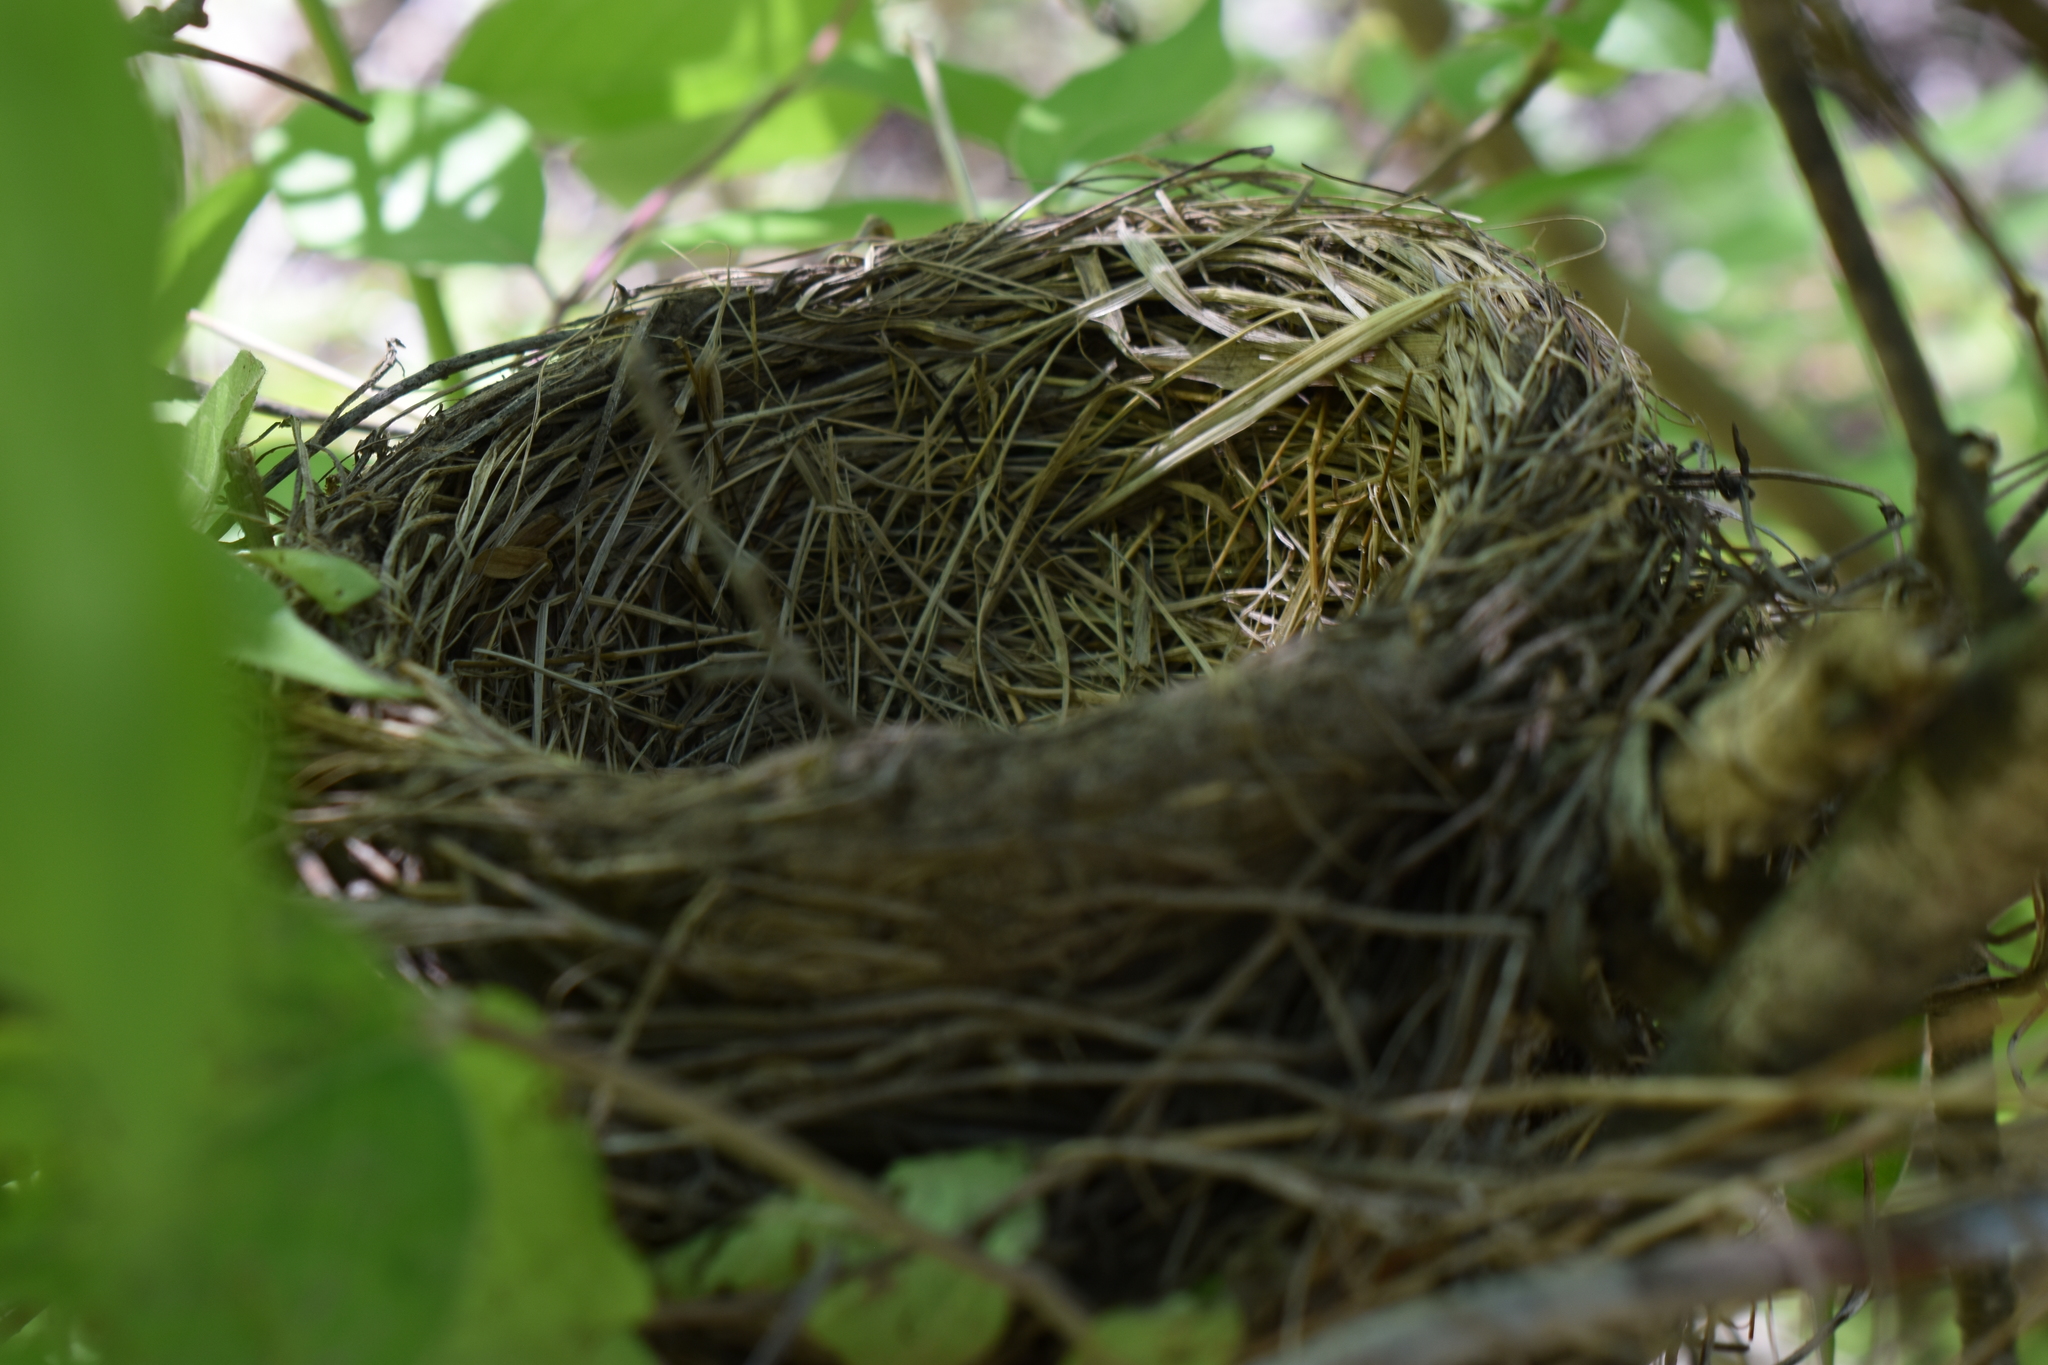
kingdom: Animalia
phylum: Chordata
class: Aves
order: Passeriformes
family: Turdidae
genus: Turdus
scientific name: Turdus migratorius
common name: American robin
